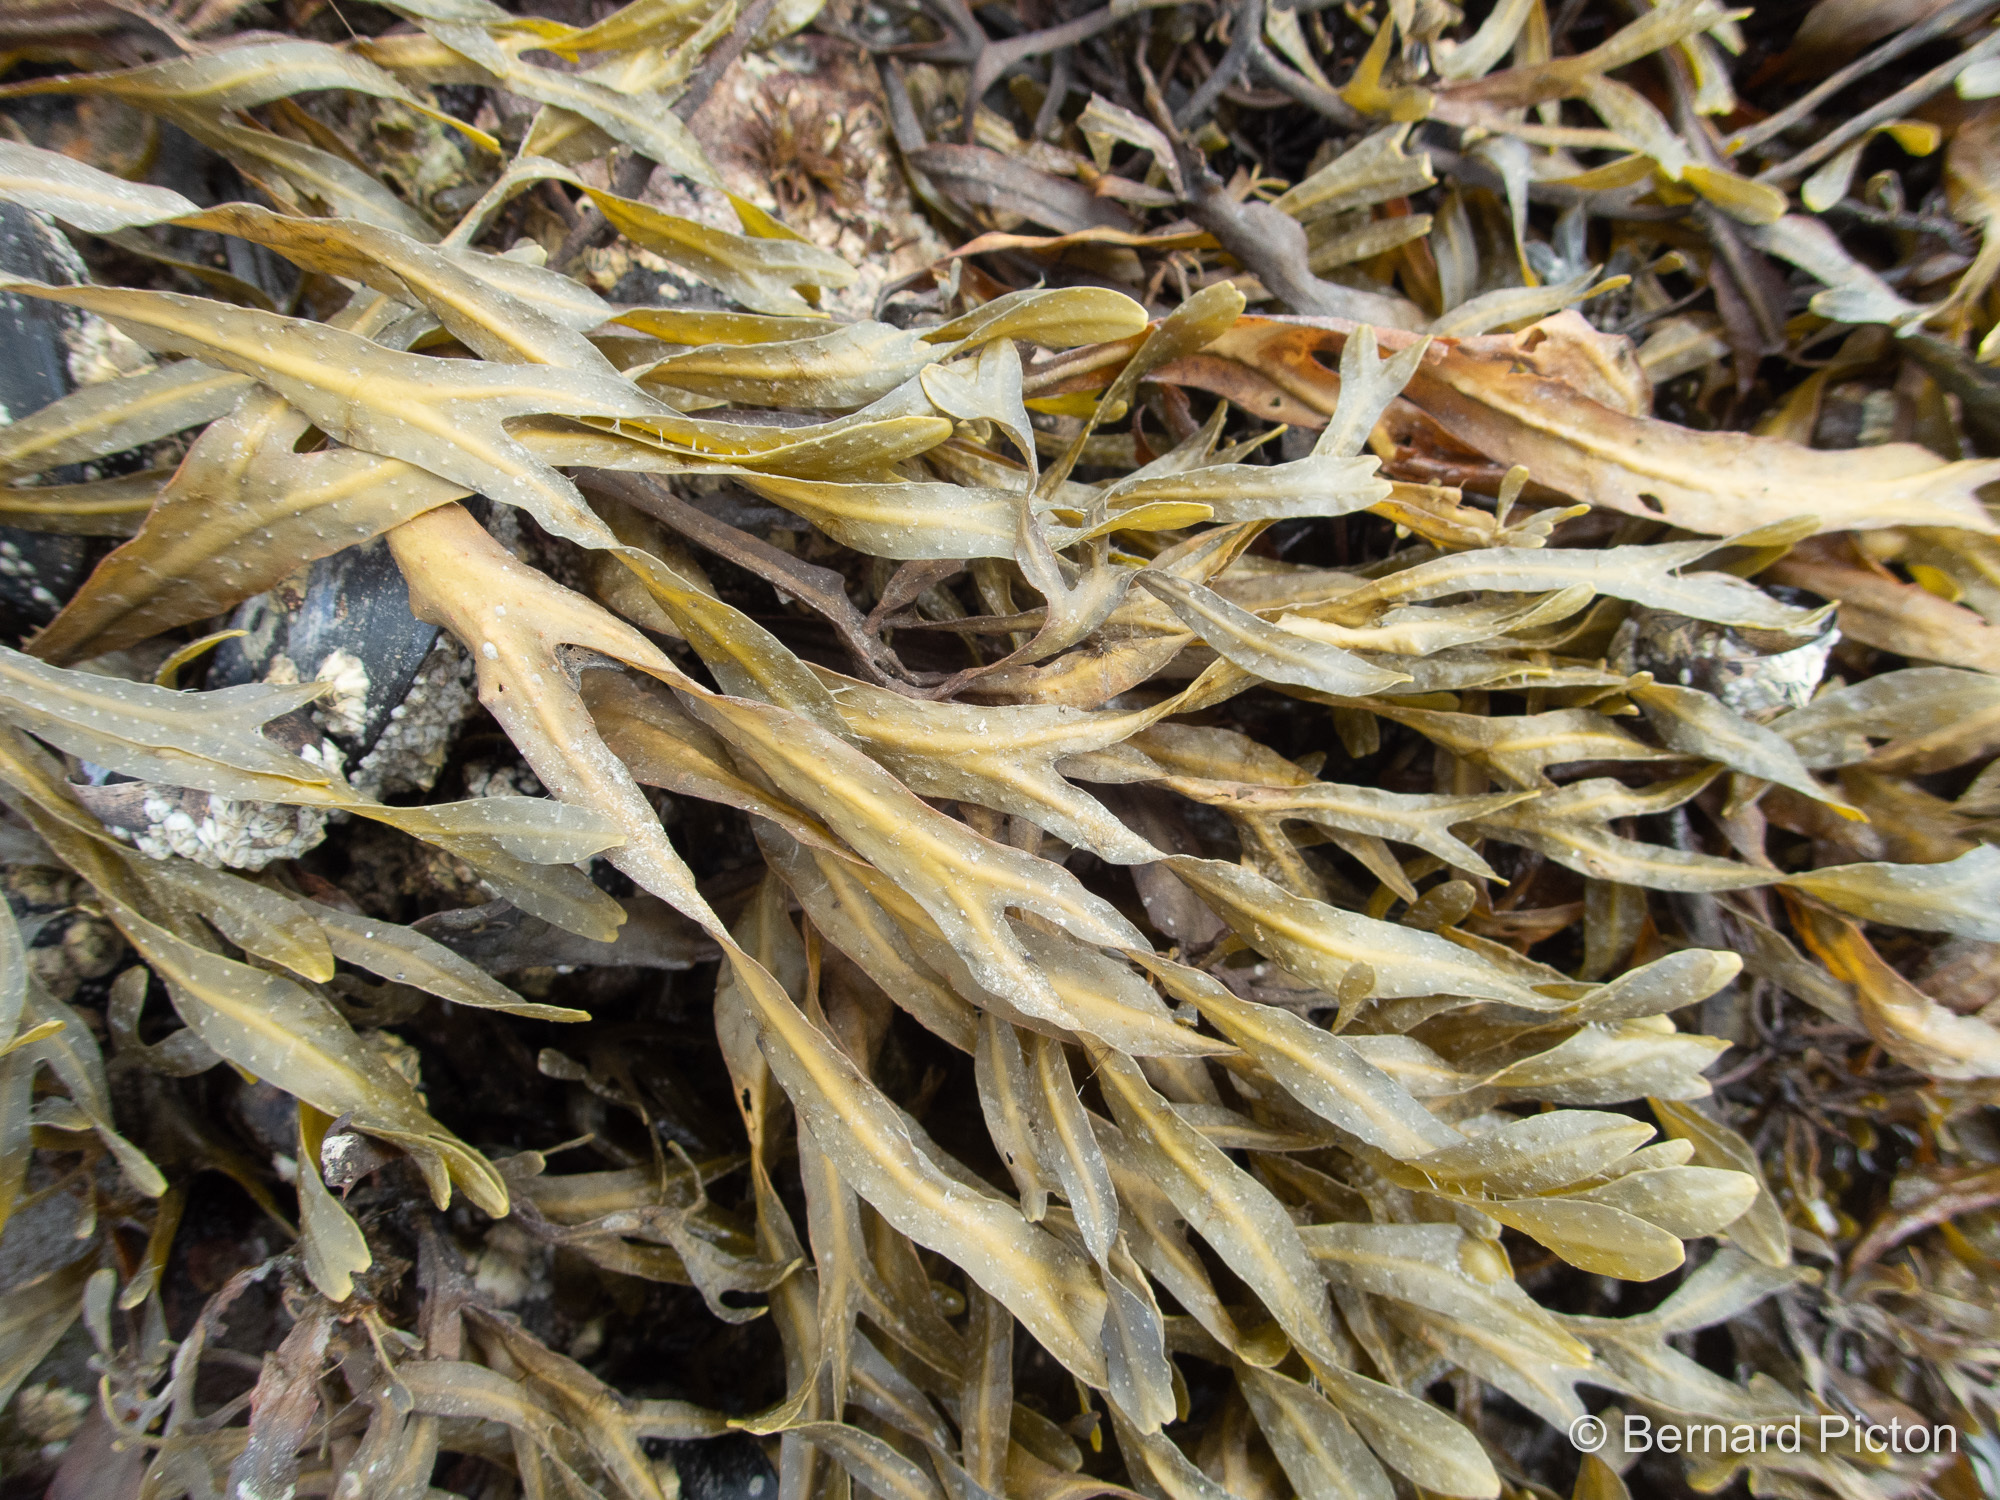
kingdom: Chromista
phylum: Ochrophyta
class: Phaeophyceae
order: Fucales
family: Fucaceae
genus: Fucus
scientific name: Fucus vesiculosus
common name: Bladder wrack
